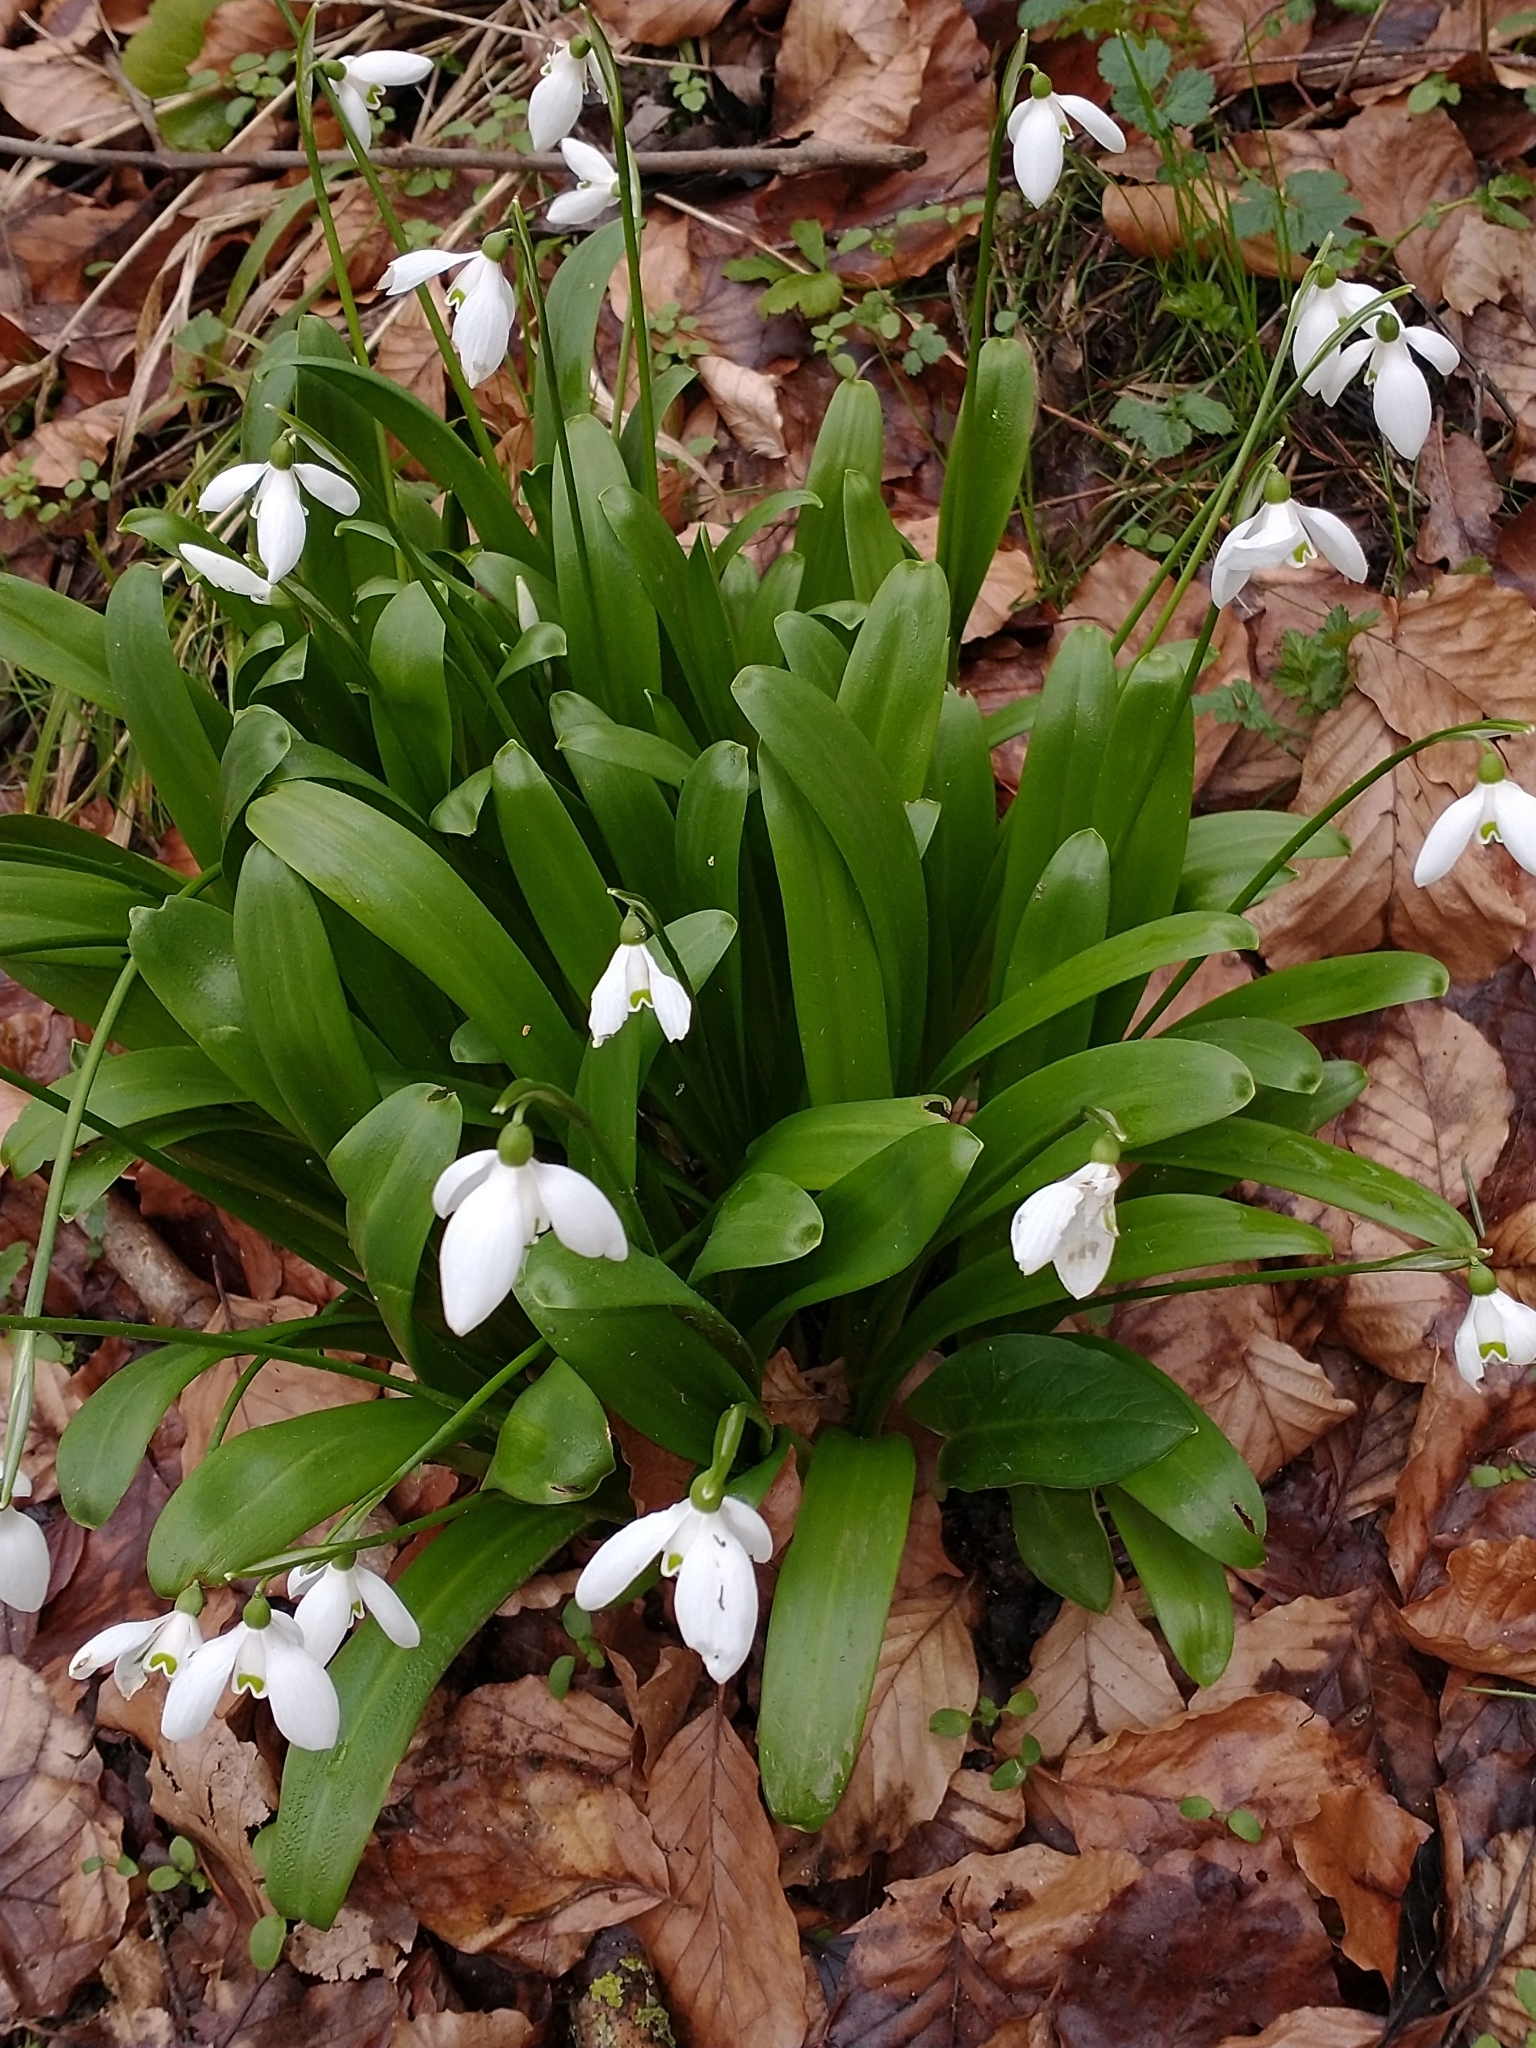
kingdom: Plantae
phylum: Tracheophyta
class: Liliopsida
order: Asparagales
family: Amaryllidaceae
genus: Galanthus
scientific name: Galanthus woronowii
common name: Green snowdrop
